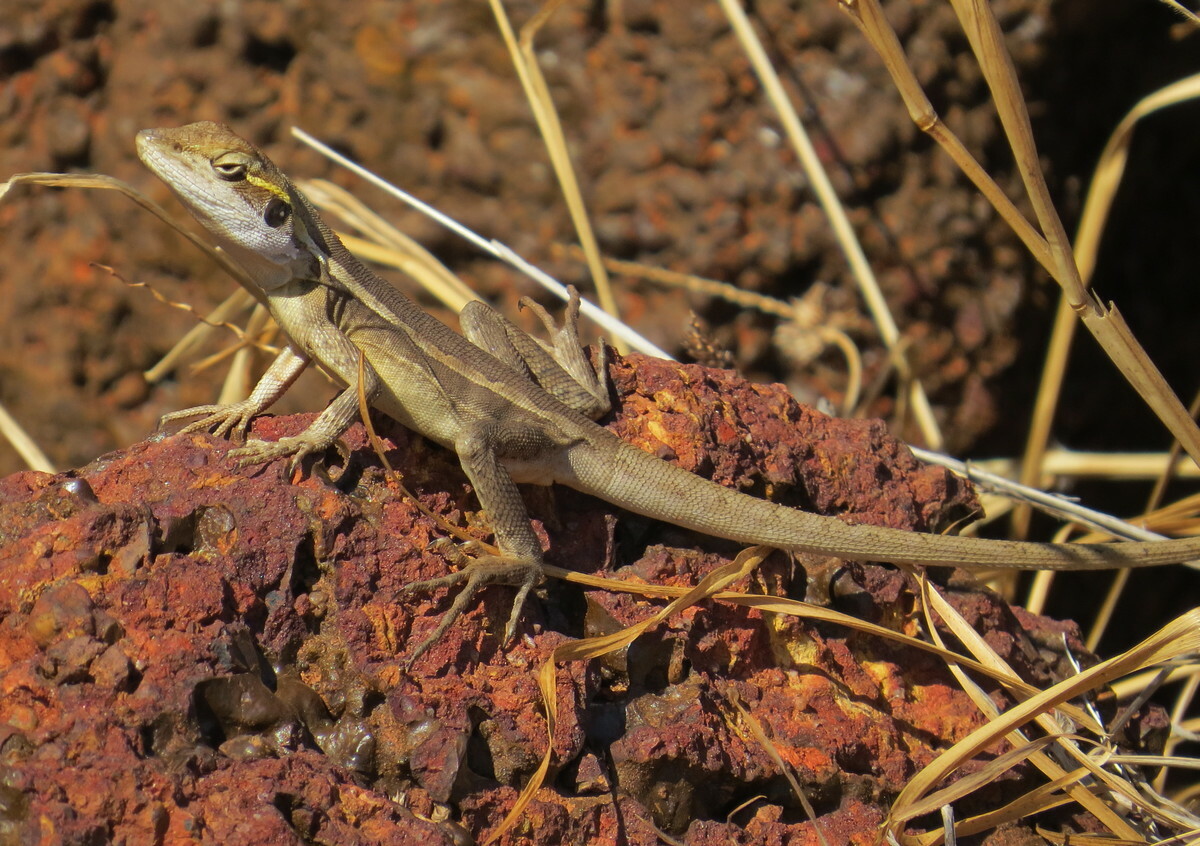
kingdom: Animalia
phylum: Chordata
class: Squamata
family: Agamidae
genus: Lophognathus
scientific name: Lophognathus horneri
